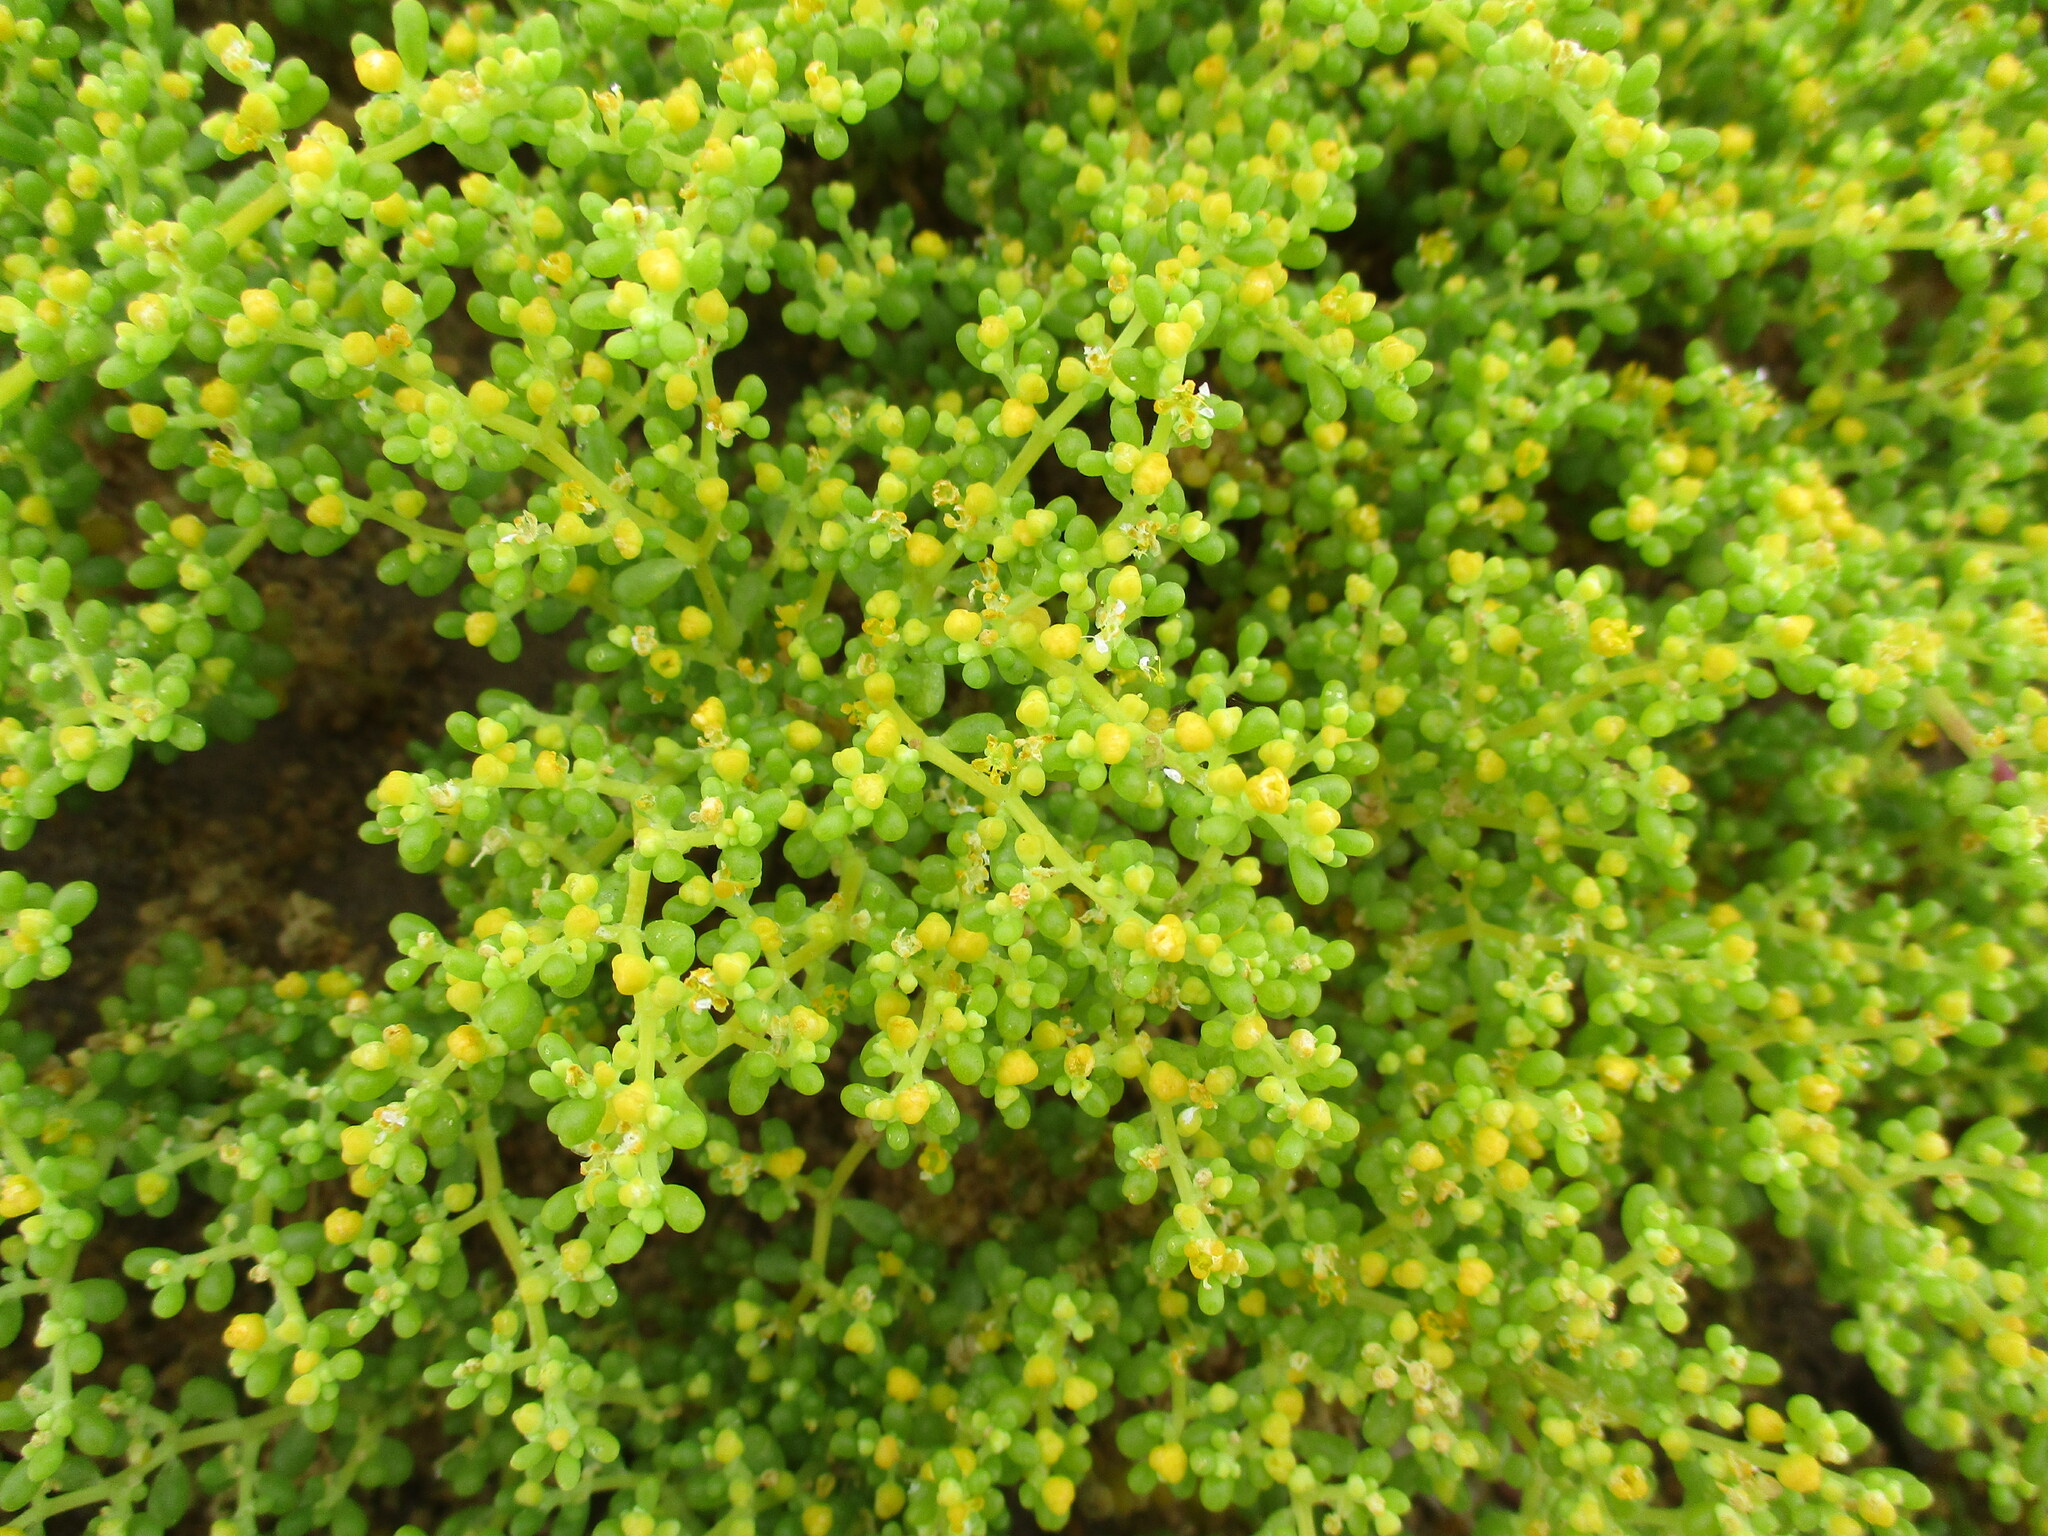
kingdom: Plantae
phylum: Tracheophyta
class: Magnoliopsida
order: Zygophyllales
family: Zygophyllaceae
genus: Tetraena
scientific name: Tetraena simplex
